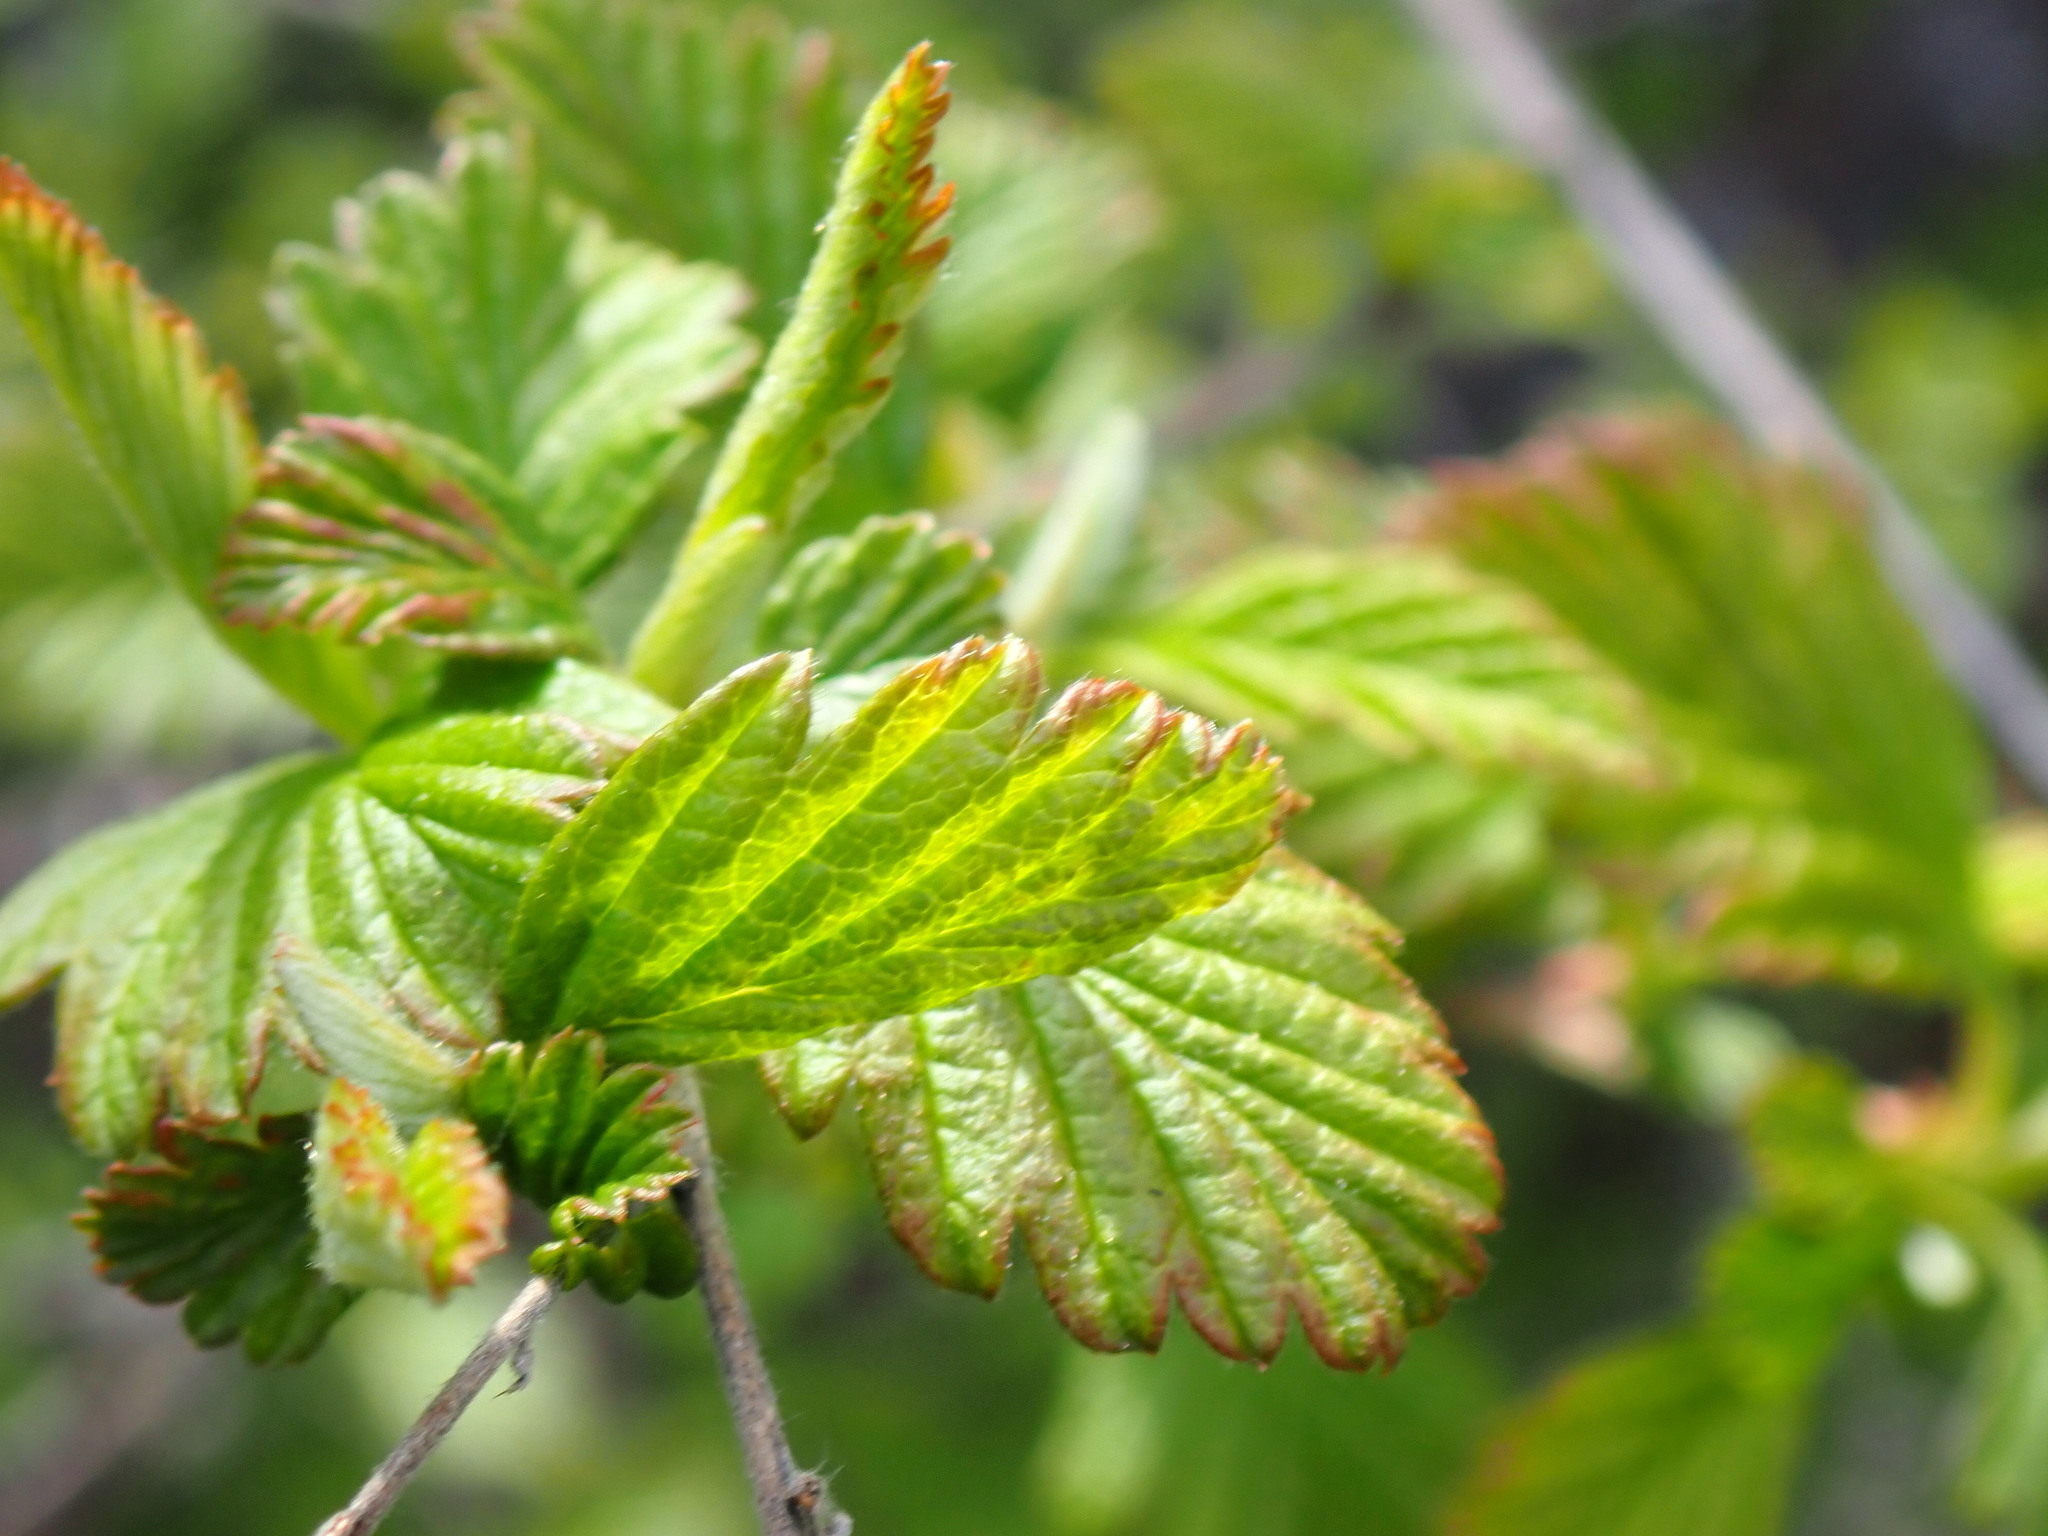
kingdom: Plantae
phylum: Tracheophyta
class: Magnoliopsida
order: Rosales
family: Rosaceae
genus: Holodiscus
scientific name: Holodiscus discolor
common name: Oceanspray
